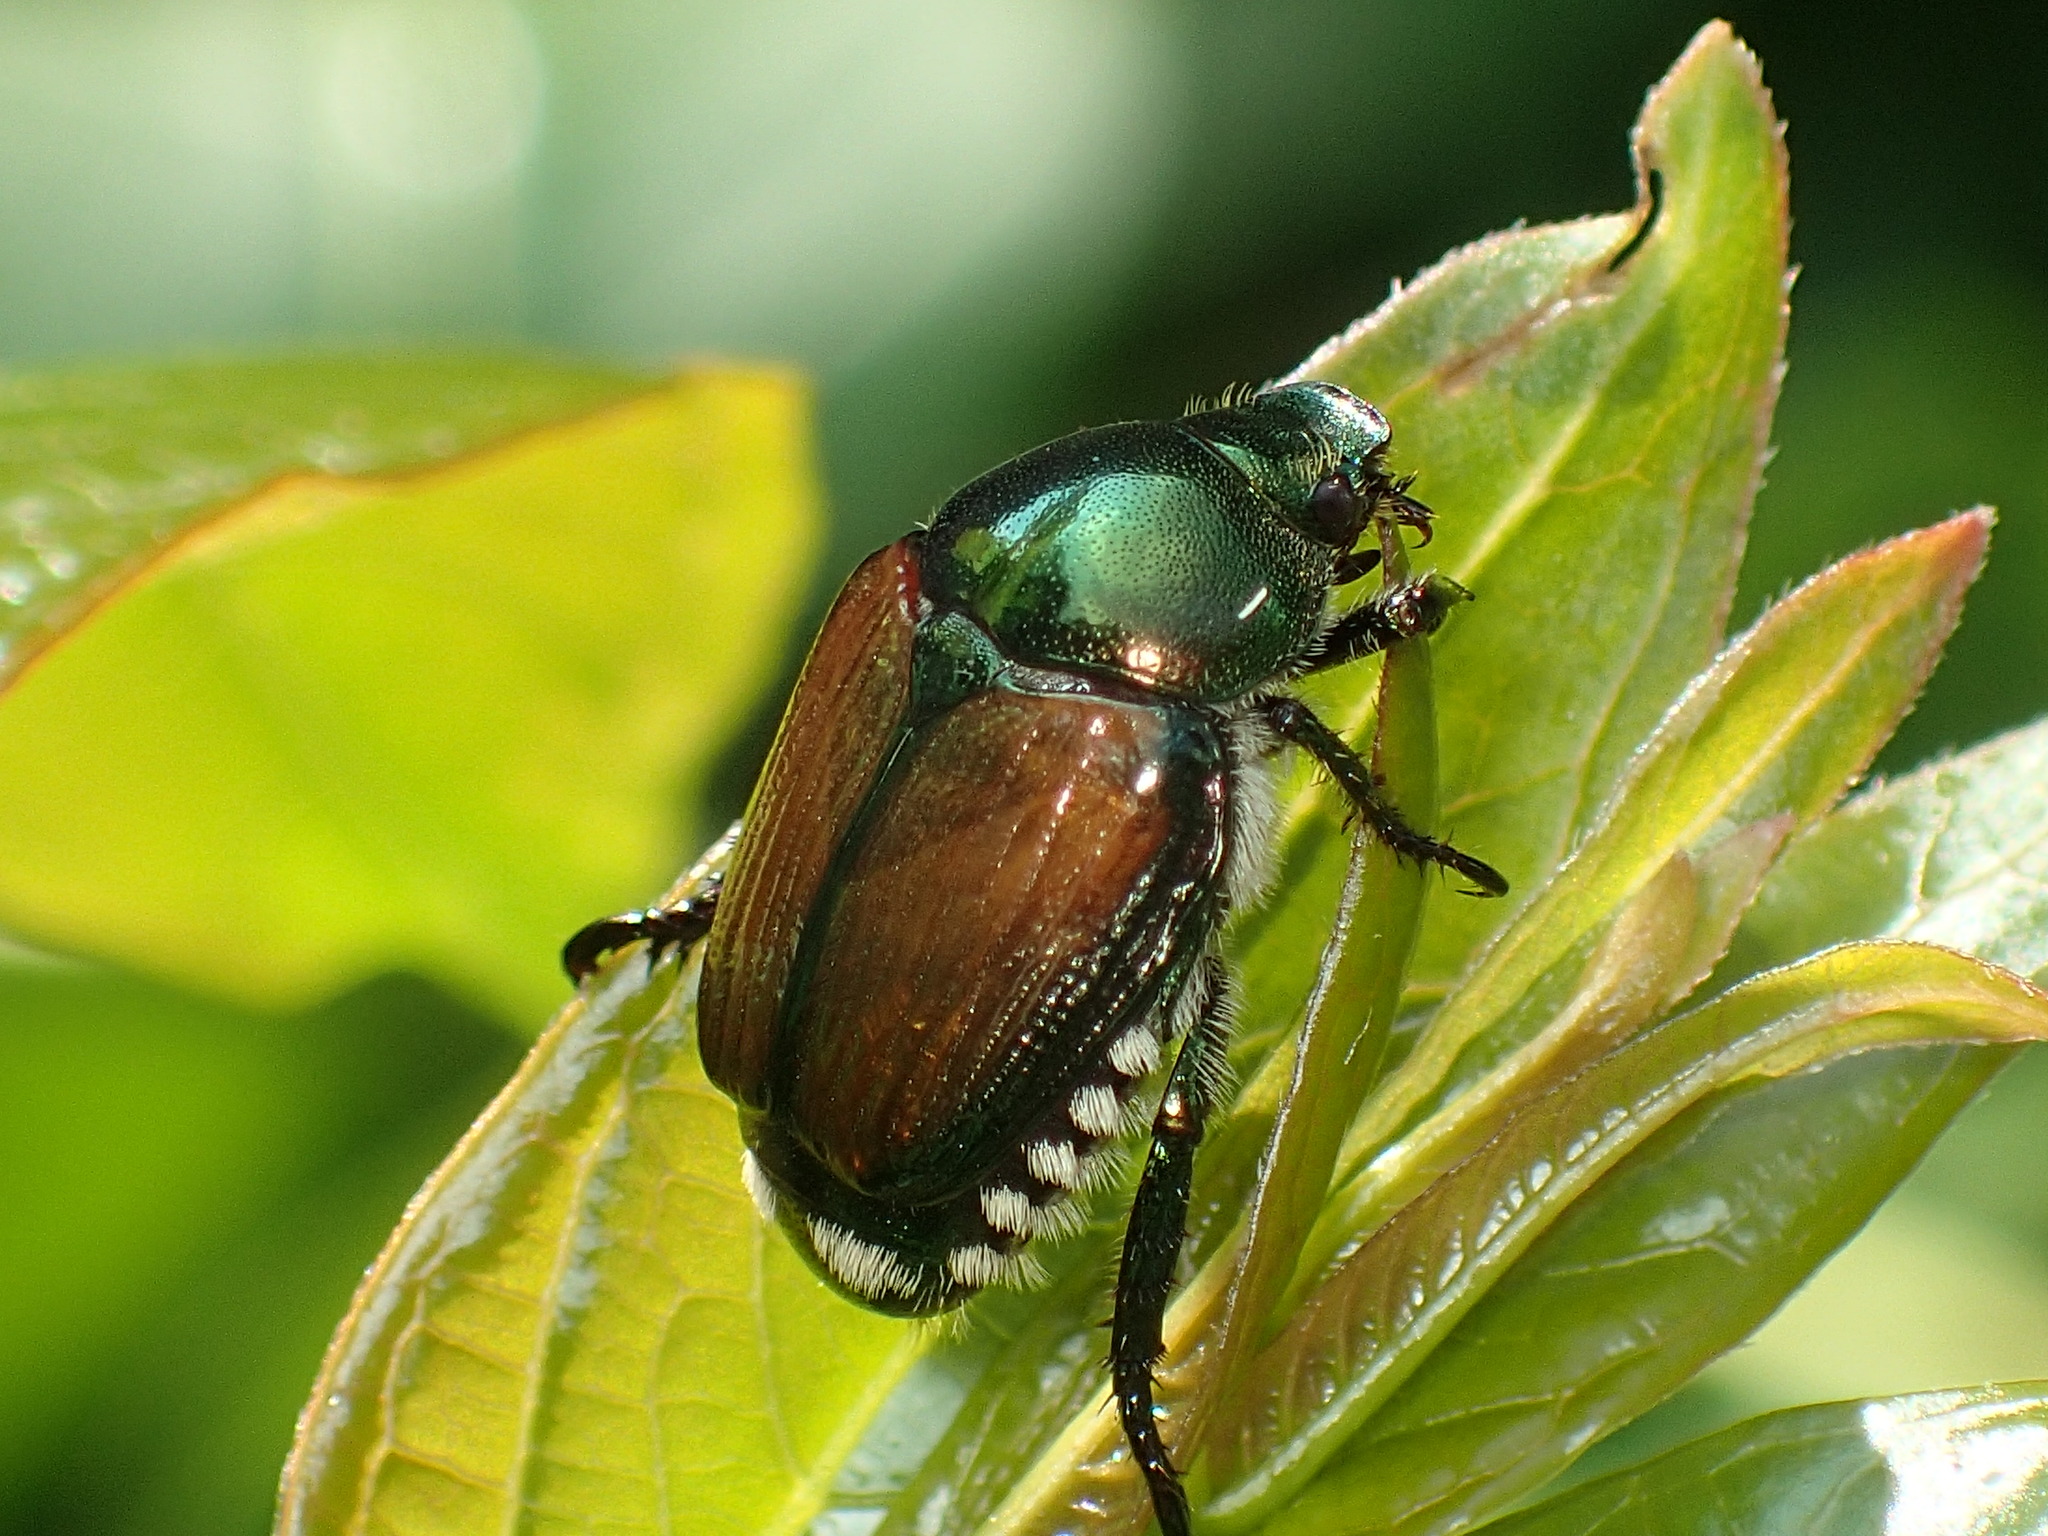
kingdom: Animalia
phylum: Arthropoda
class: Insecta
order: Coleoptera
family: Scarabaeidae
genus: Popillia
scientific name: Popillia japonica
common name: Japanese beetle
